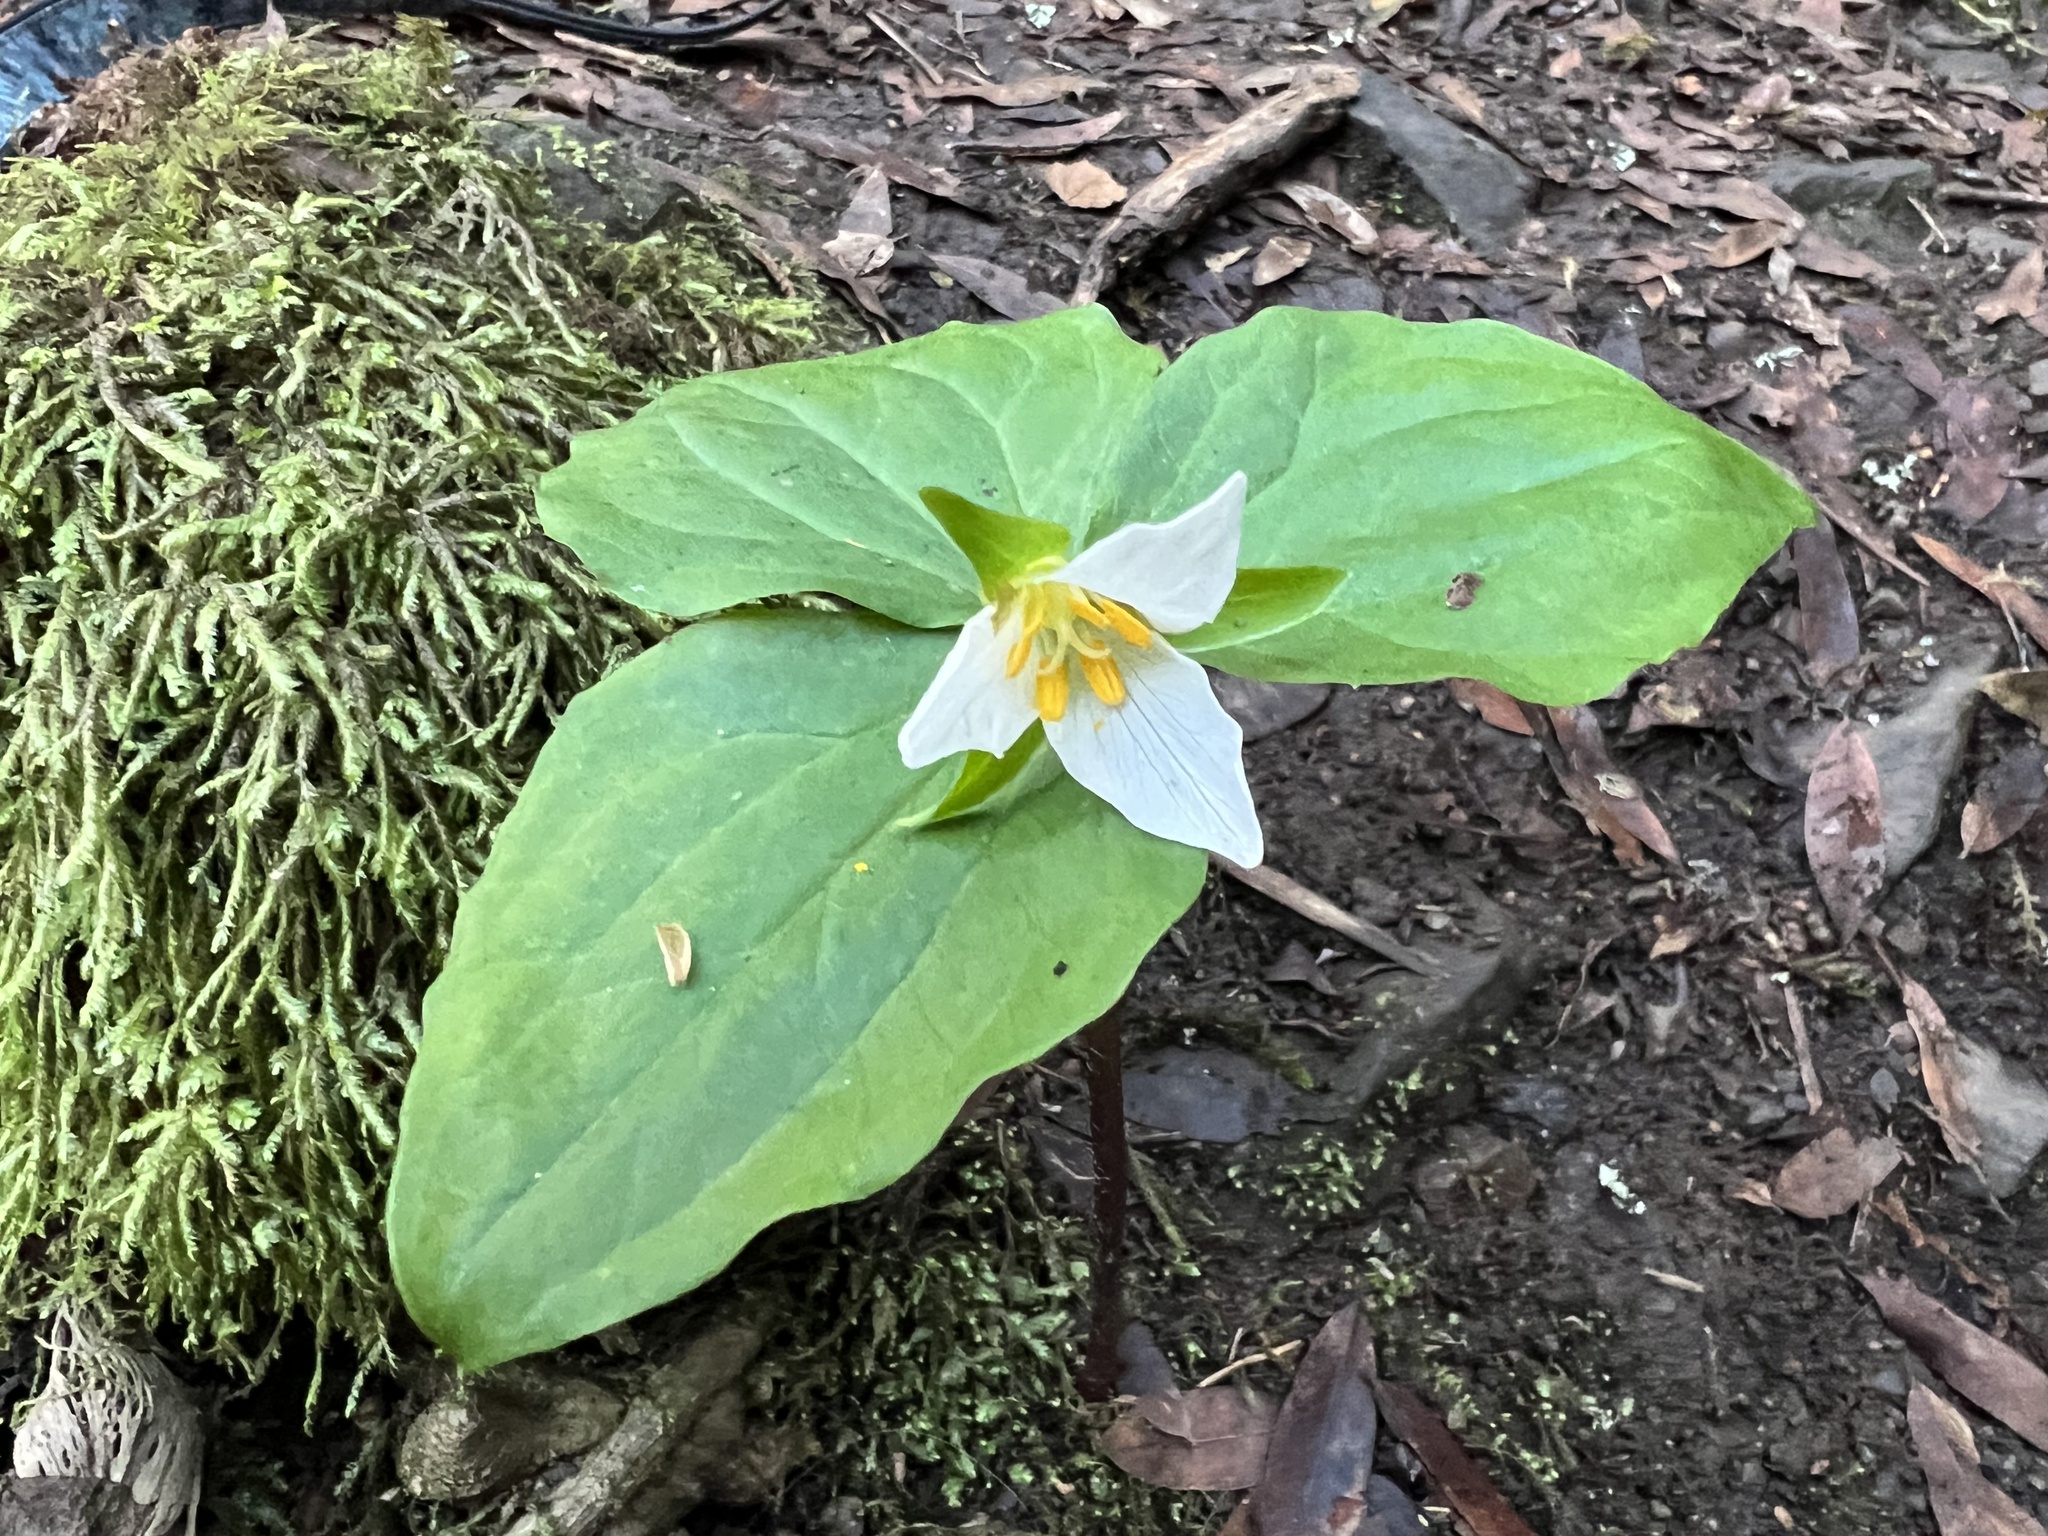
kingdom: Plantae
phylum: Tracheophyta
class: Liliopsida
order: Liliales
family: Melanthiaceae
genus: Trillium
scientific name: Trillium ovatum
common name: Pacific trillium
